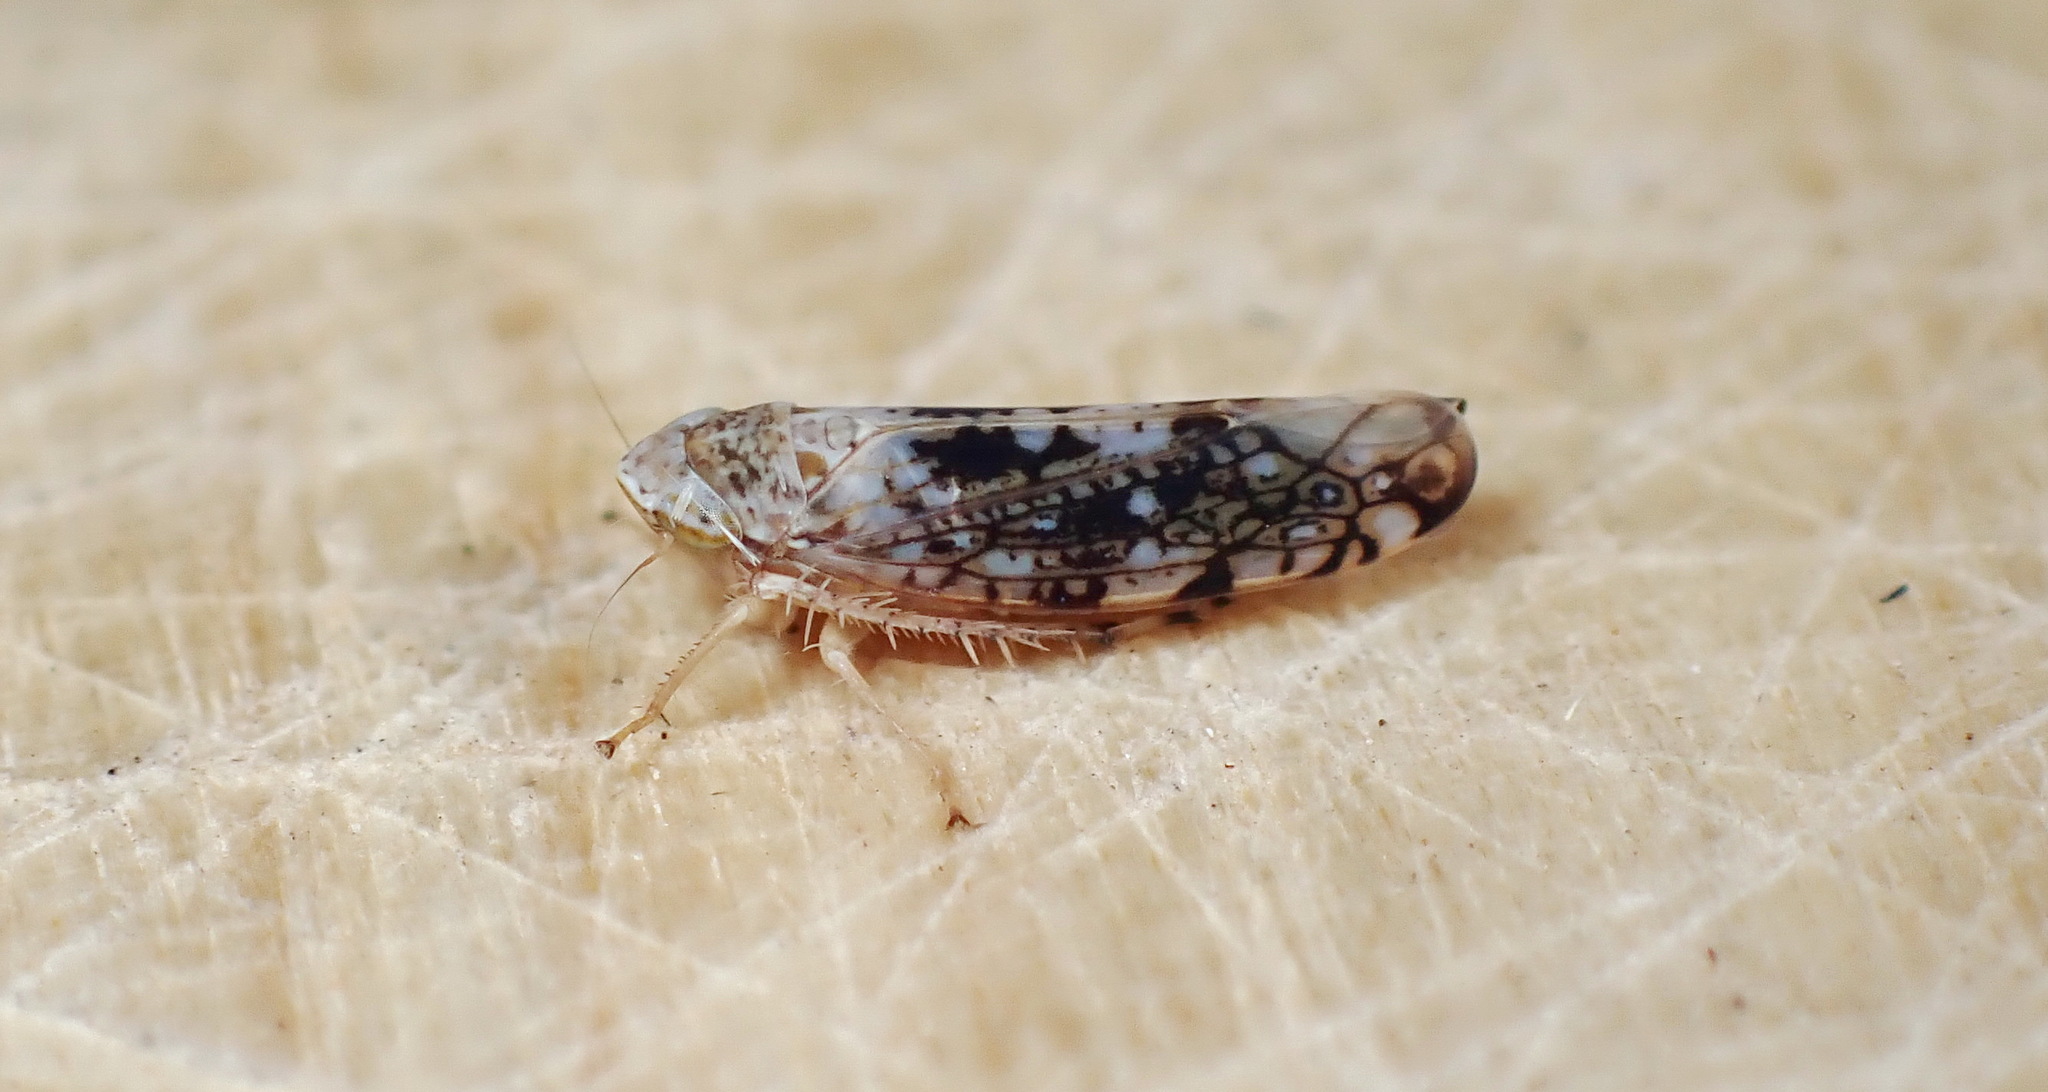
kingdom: Animalia
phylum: Arthropoda
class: Insecta
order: Hemiptera
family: Cicadellidae
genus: Prescottia
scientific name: Prescottia lobata
